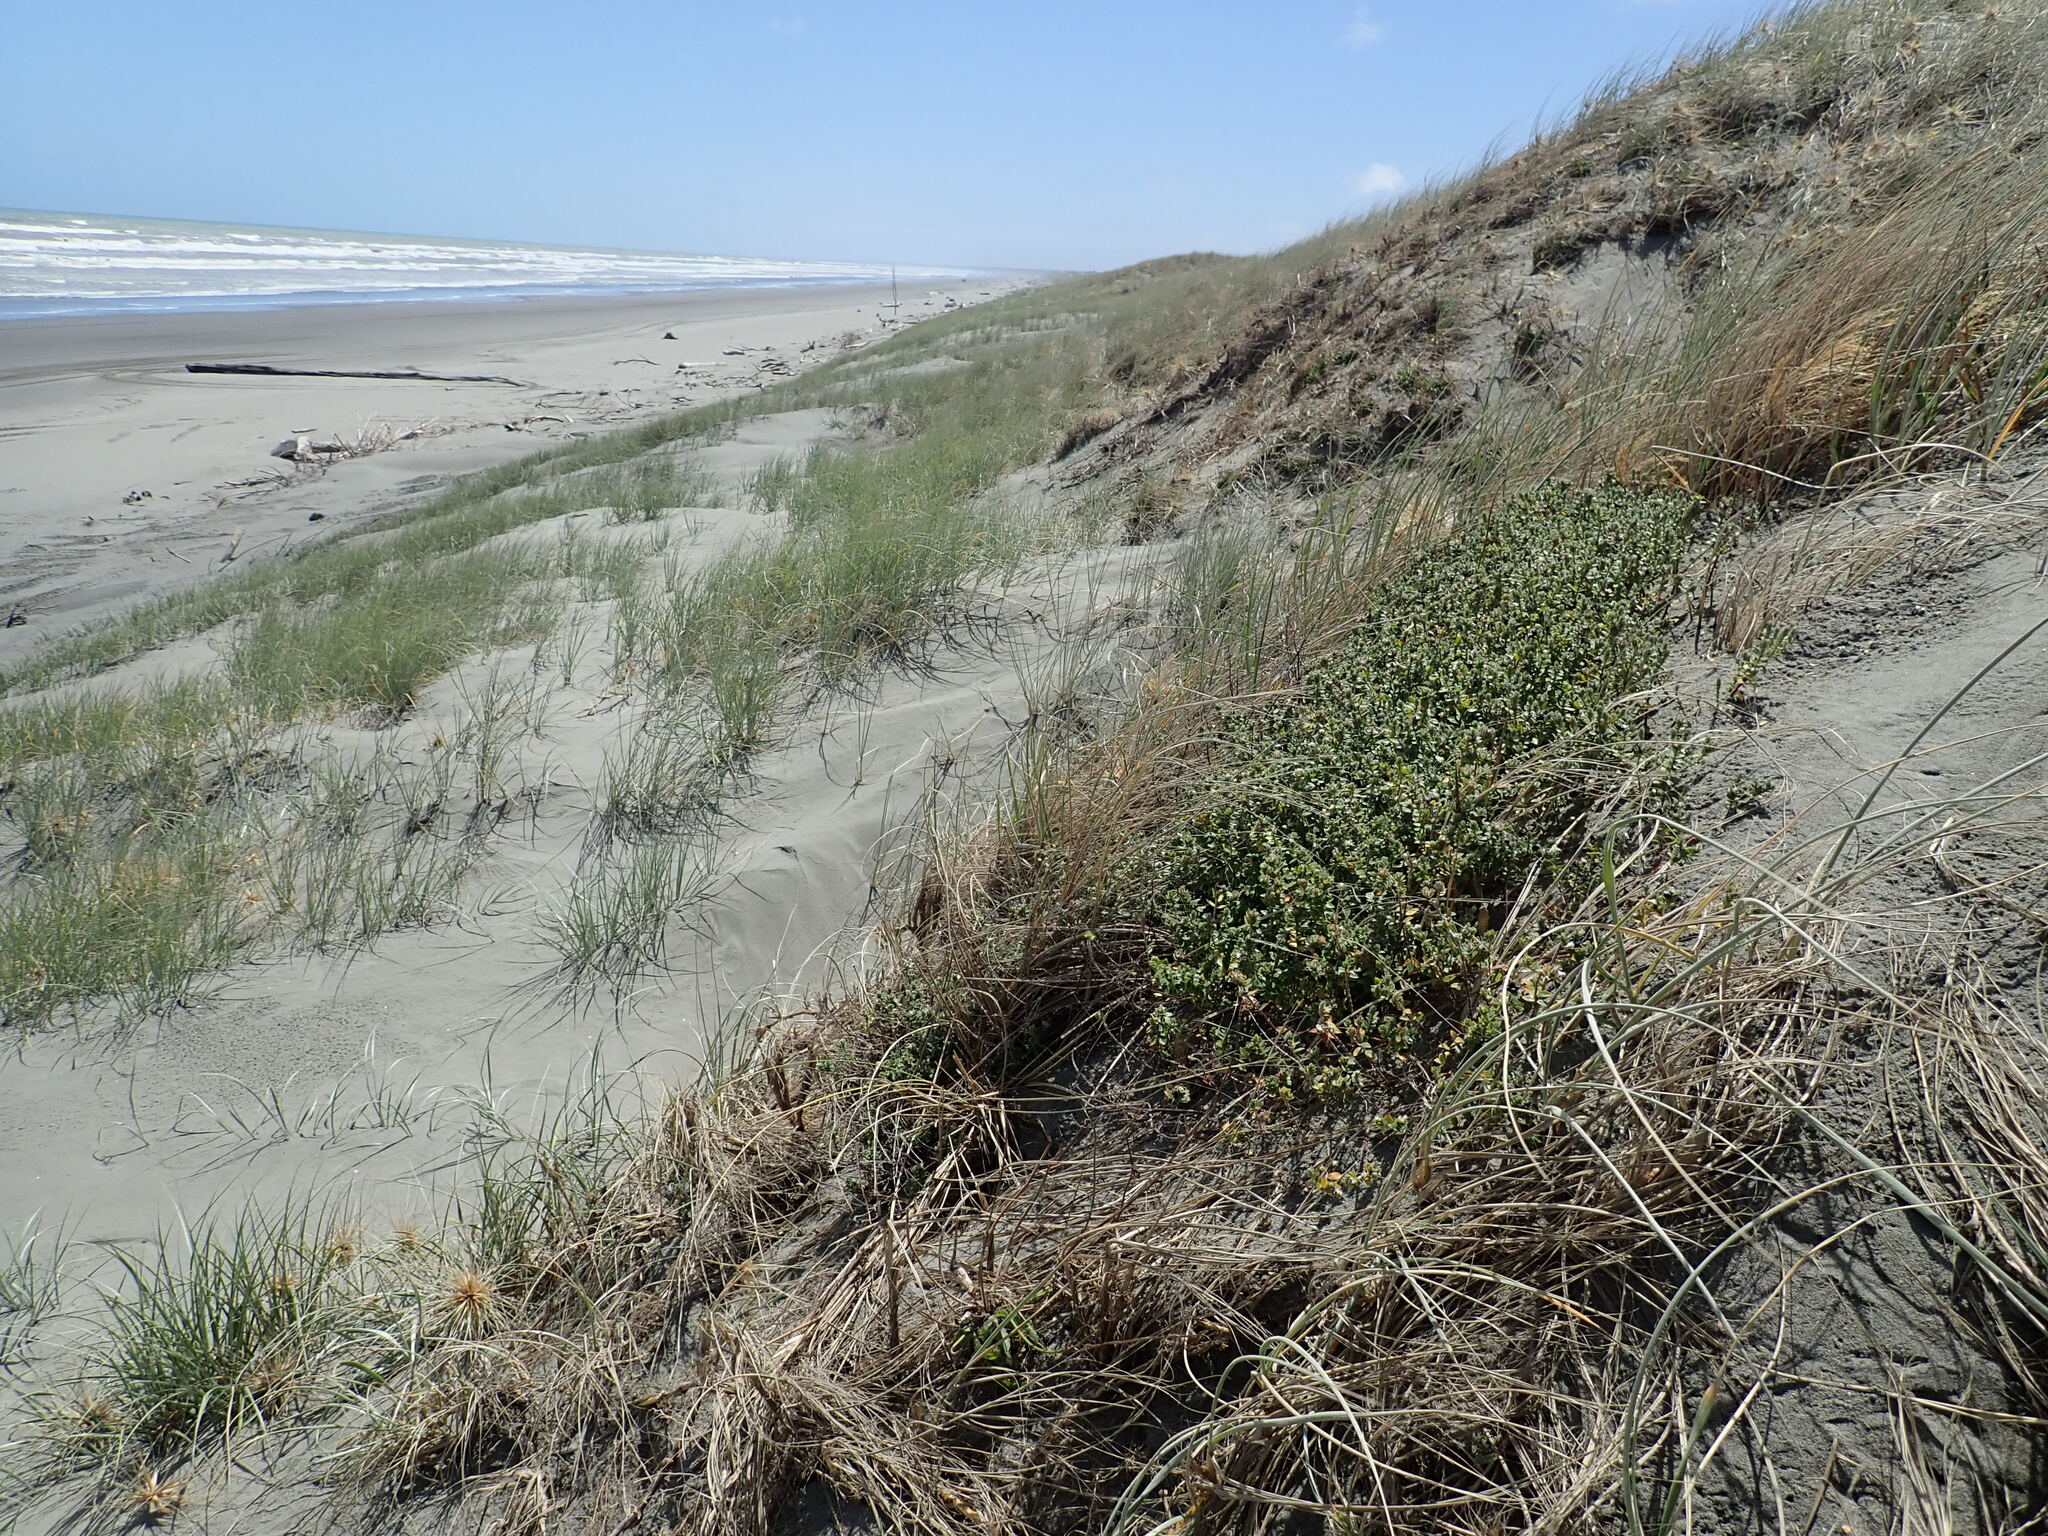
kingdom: Plantae
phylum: Tracheophyta
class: Magnoliopsida
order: Malvales
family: Thymelaeaceae
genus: Pimelea
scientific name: Pimelea villosa
